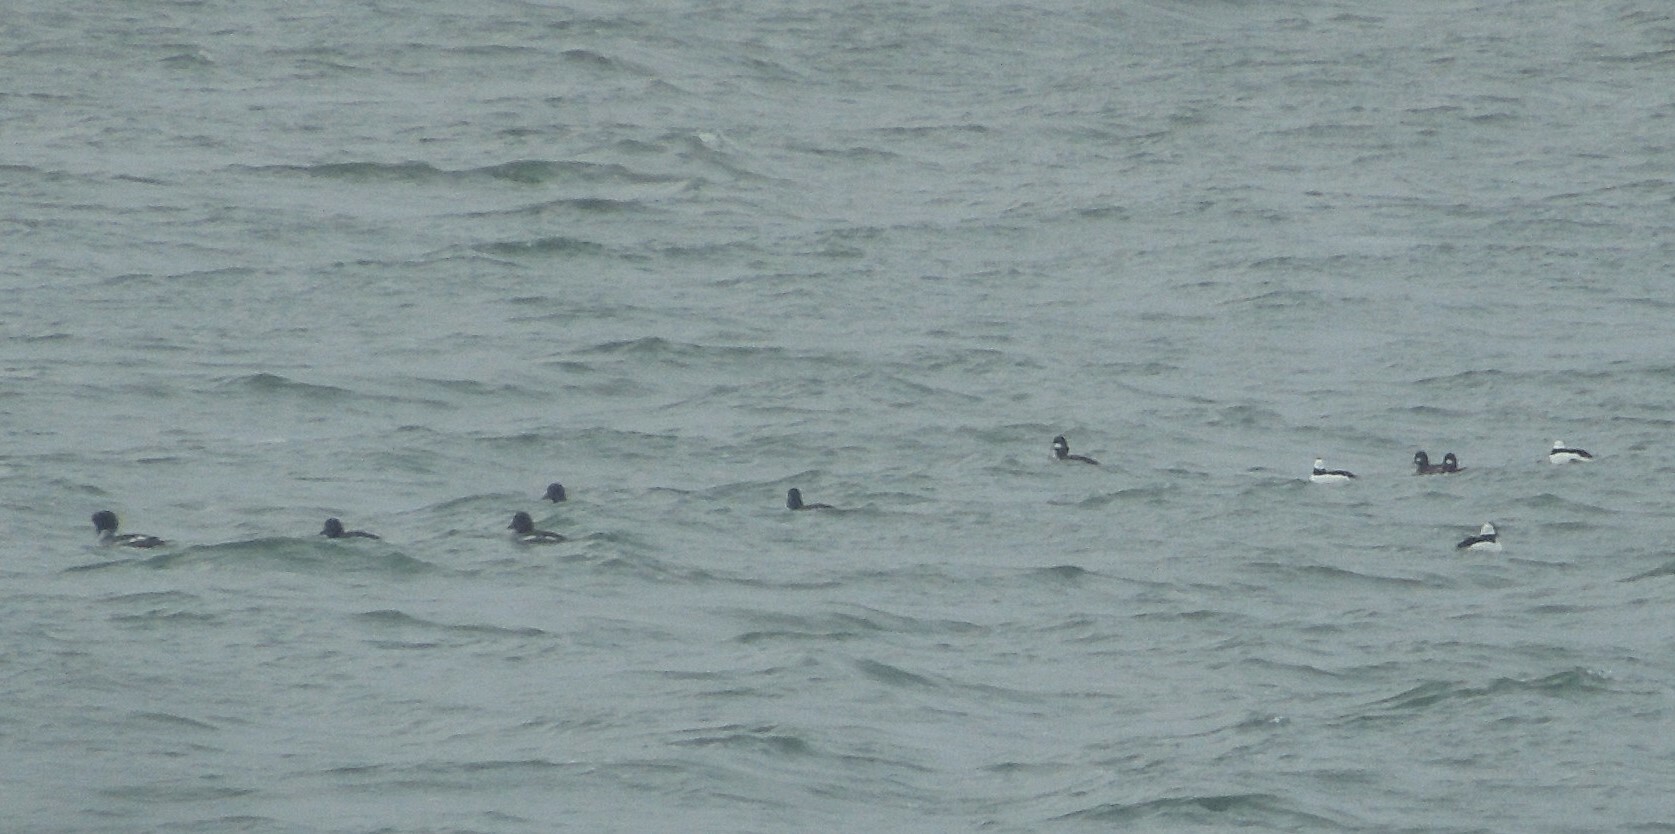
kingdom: Animalia
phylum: Chordata
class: Aves
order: Anseriformes
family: Anatidae
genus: Bucephala
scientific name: Bucephala albeola
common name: Bufflehead
